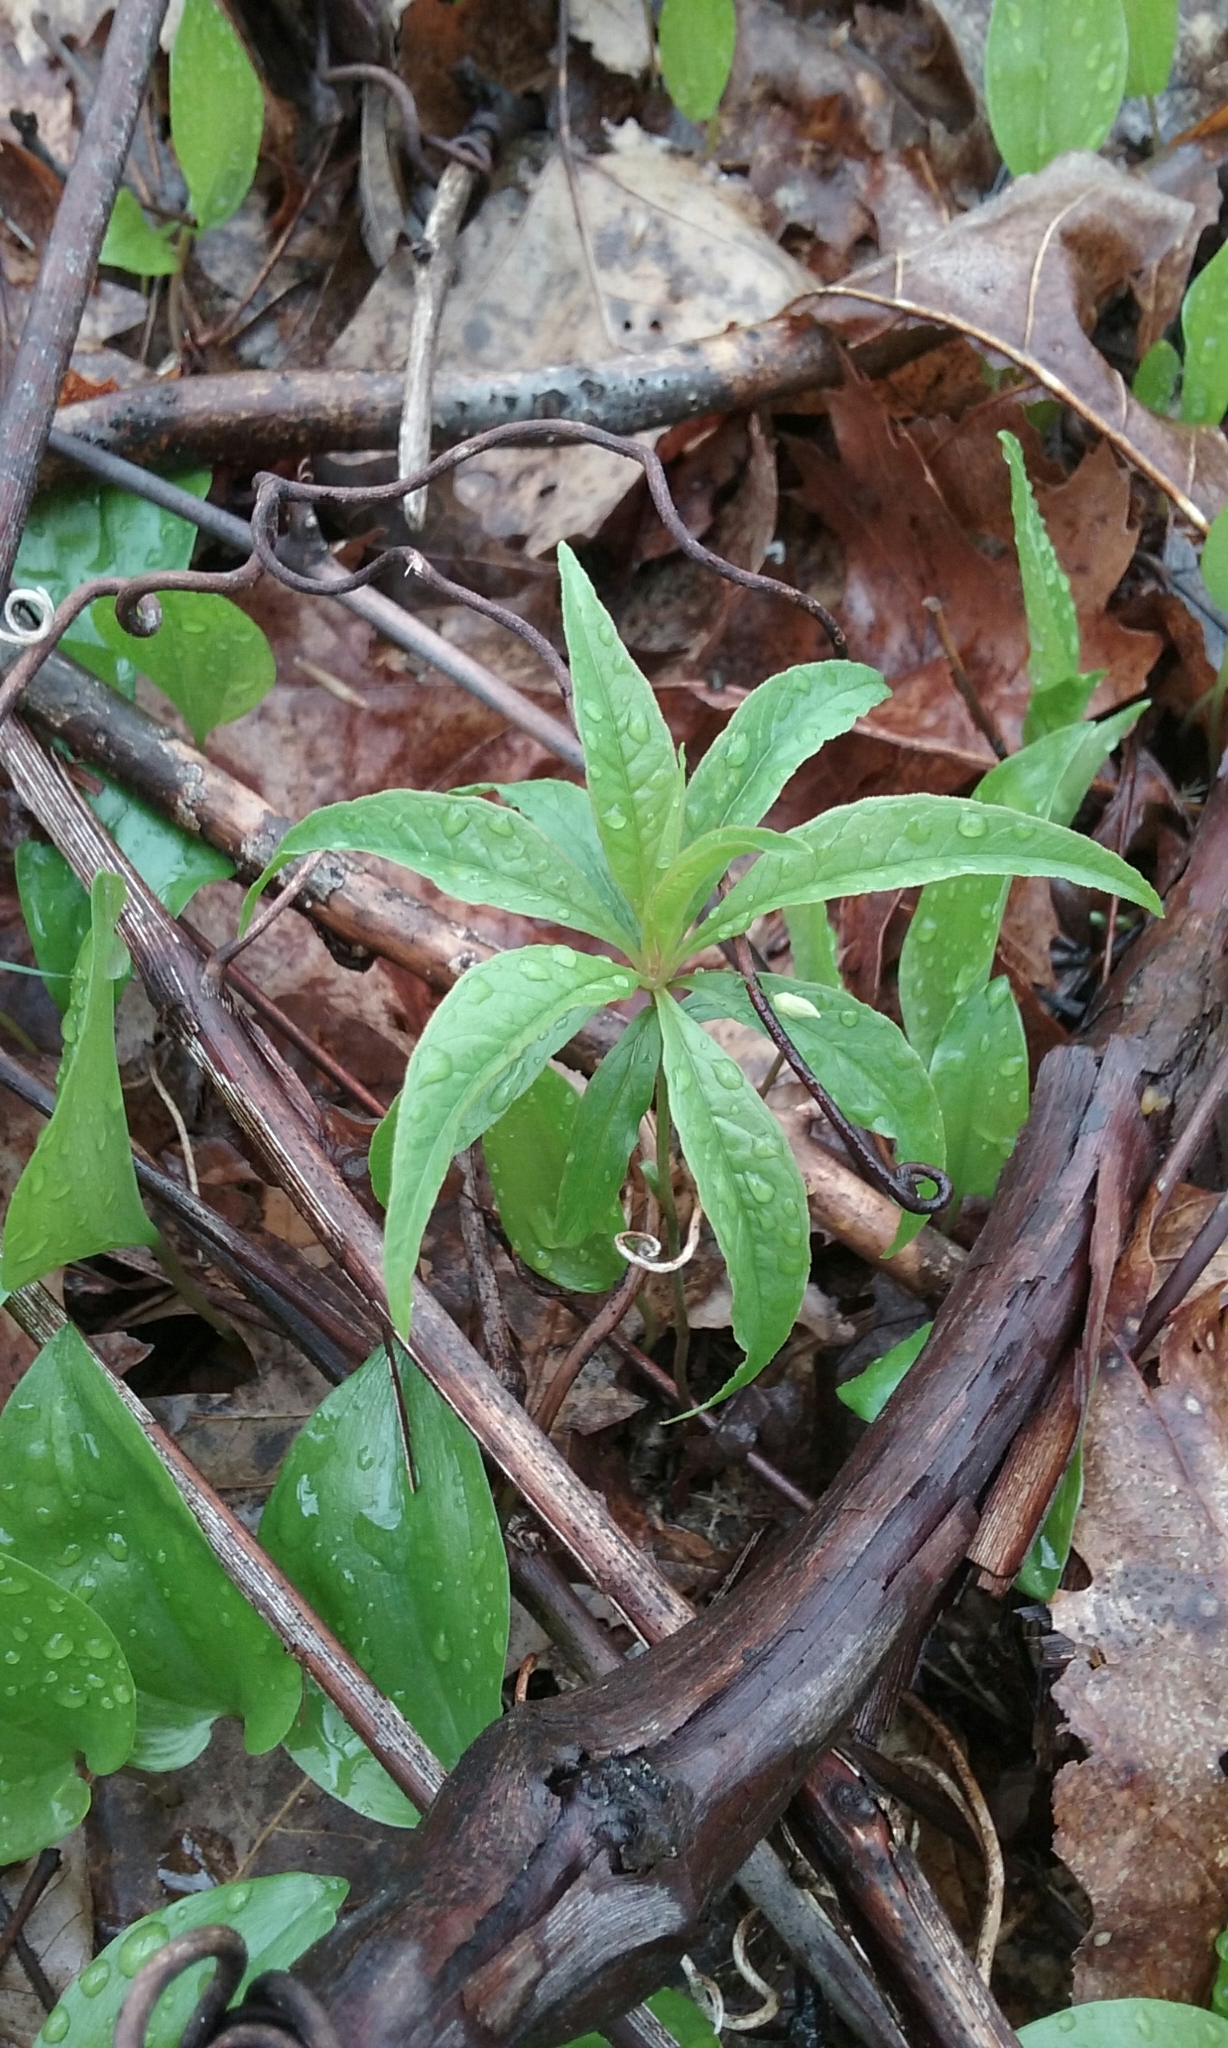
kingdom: Plantae
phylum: Tracheophyta
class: Magnoliopsida
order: Ericales
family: Primulaceae
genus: Lysimachia
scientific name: Lysimachia borealis
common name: American starflower
